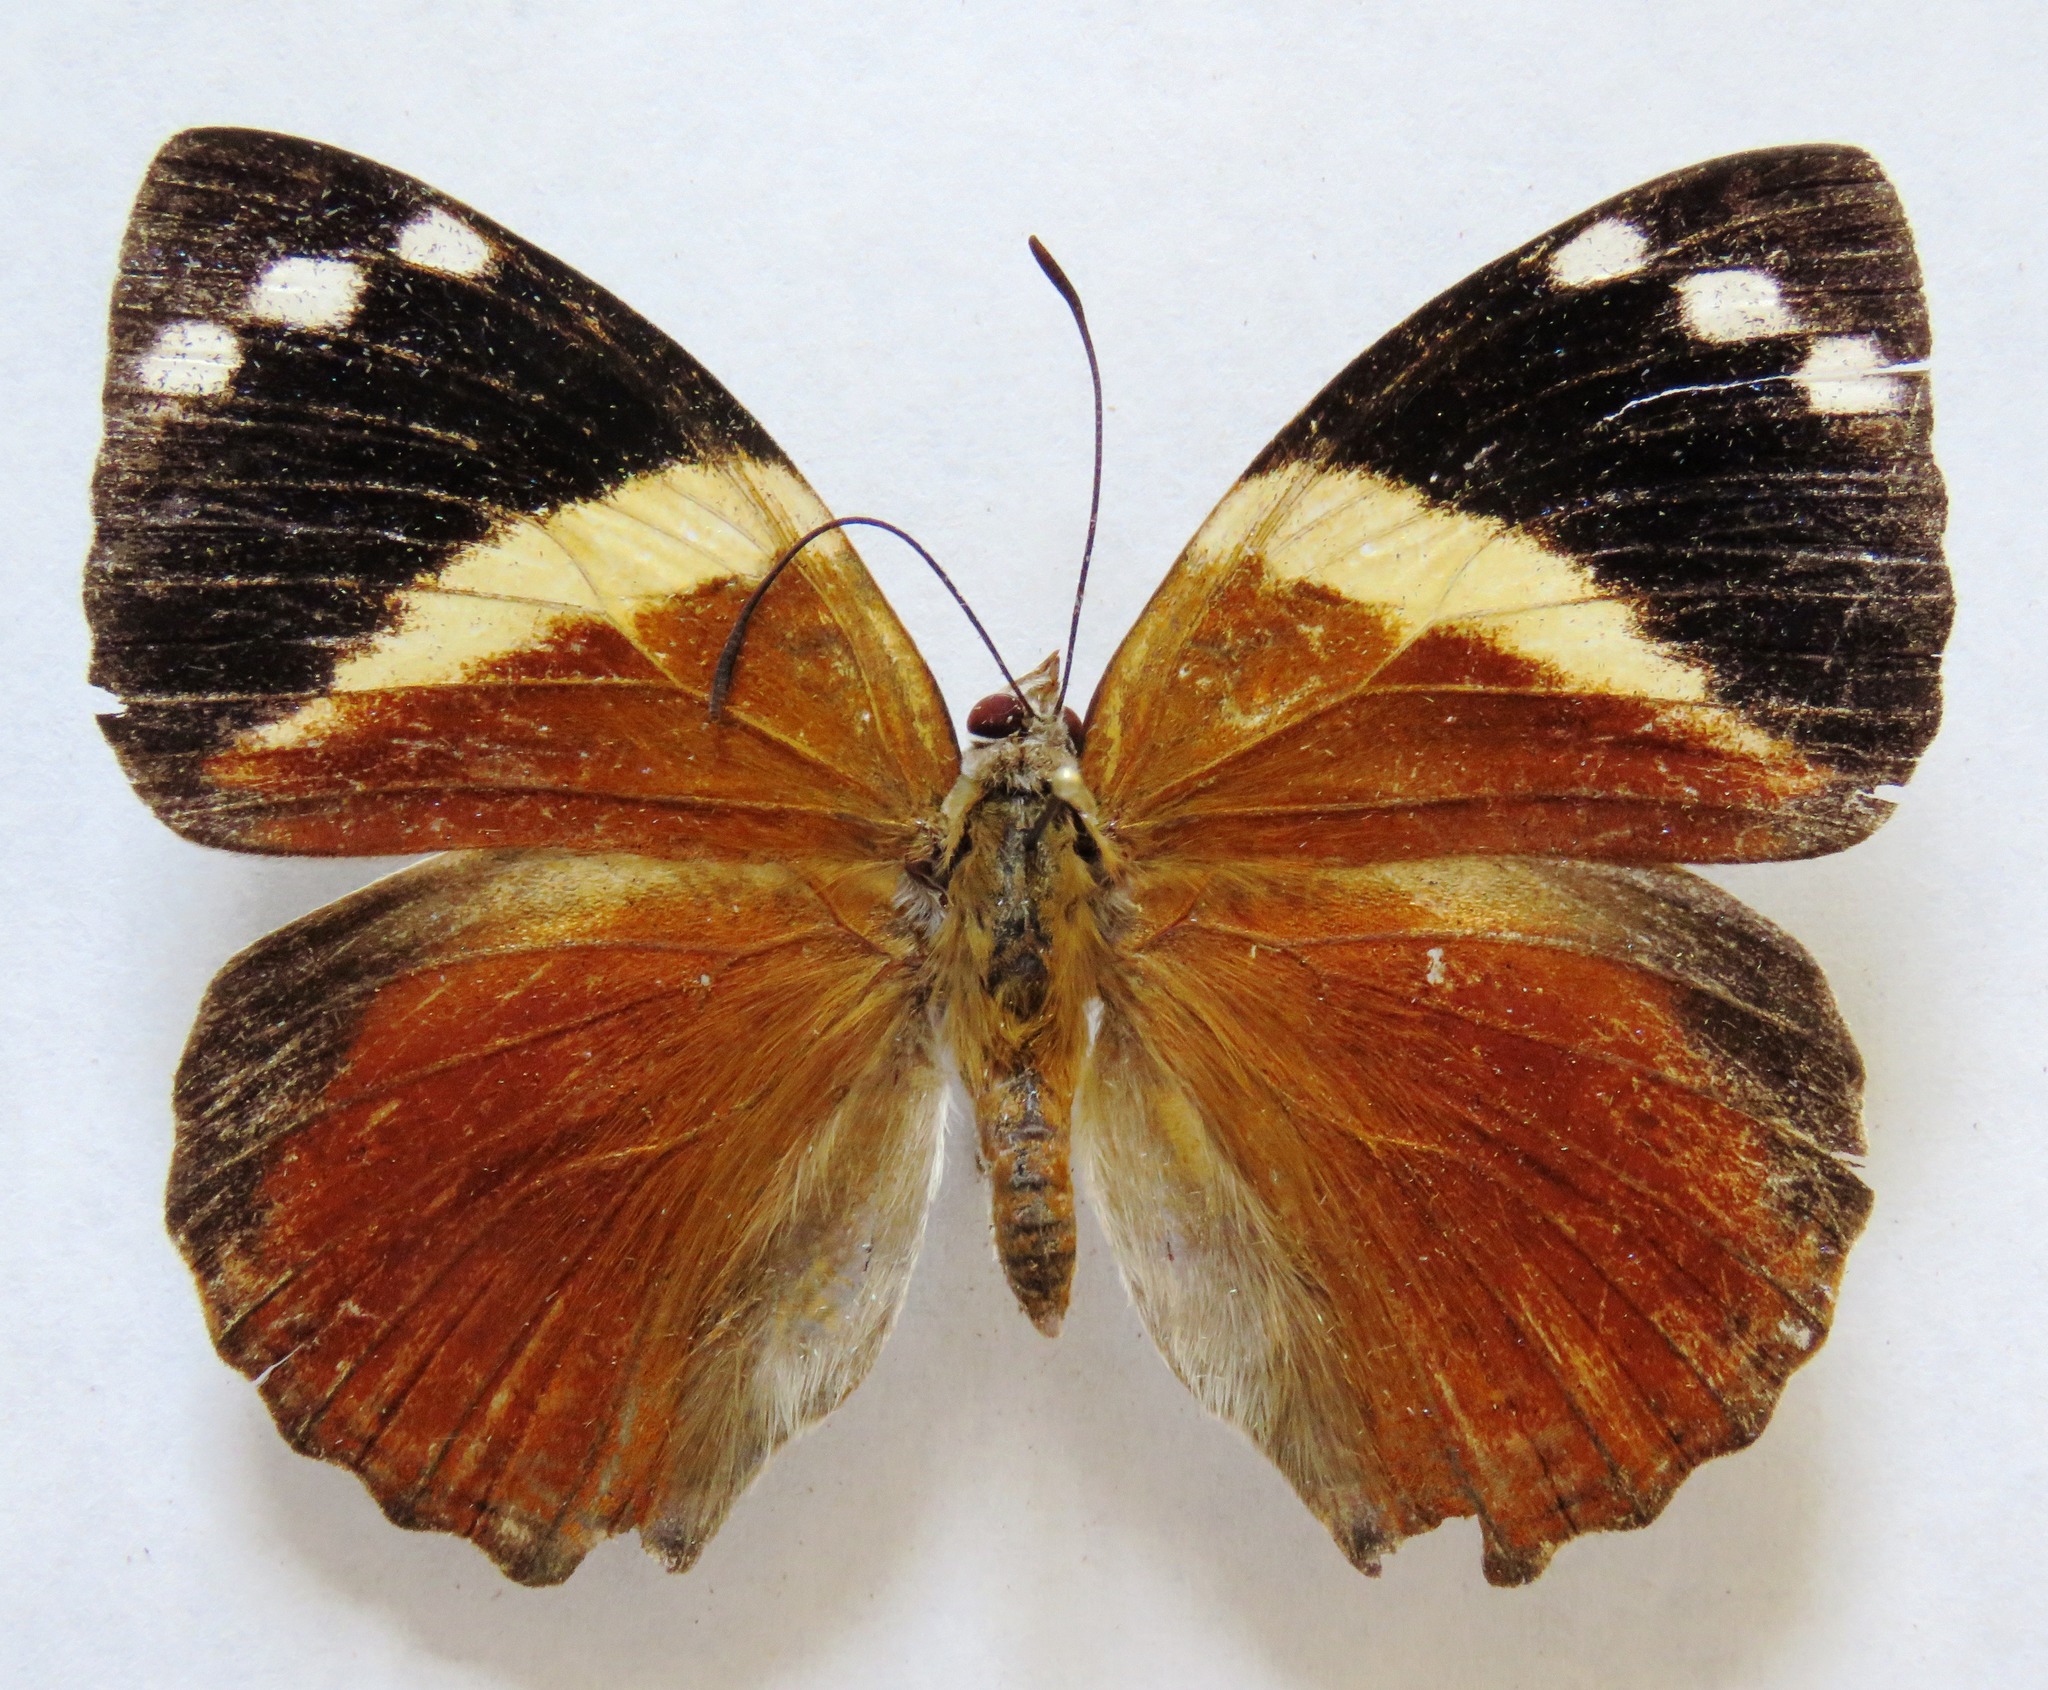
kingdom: Animalia
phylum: Arthropoda
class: Insecta
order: Lepidoptera
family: Nymphalidae
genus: Smyrna
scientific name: Smyrna karwinskii
